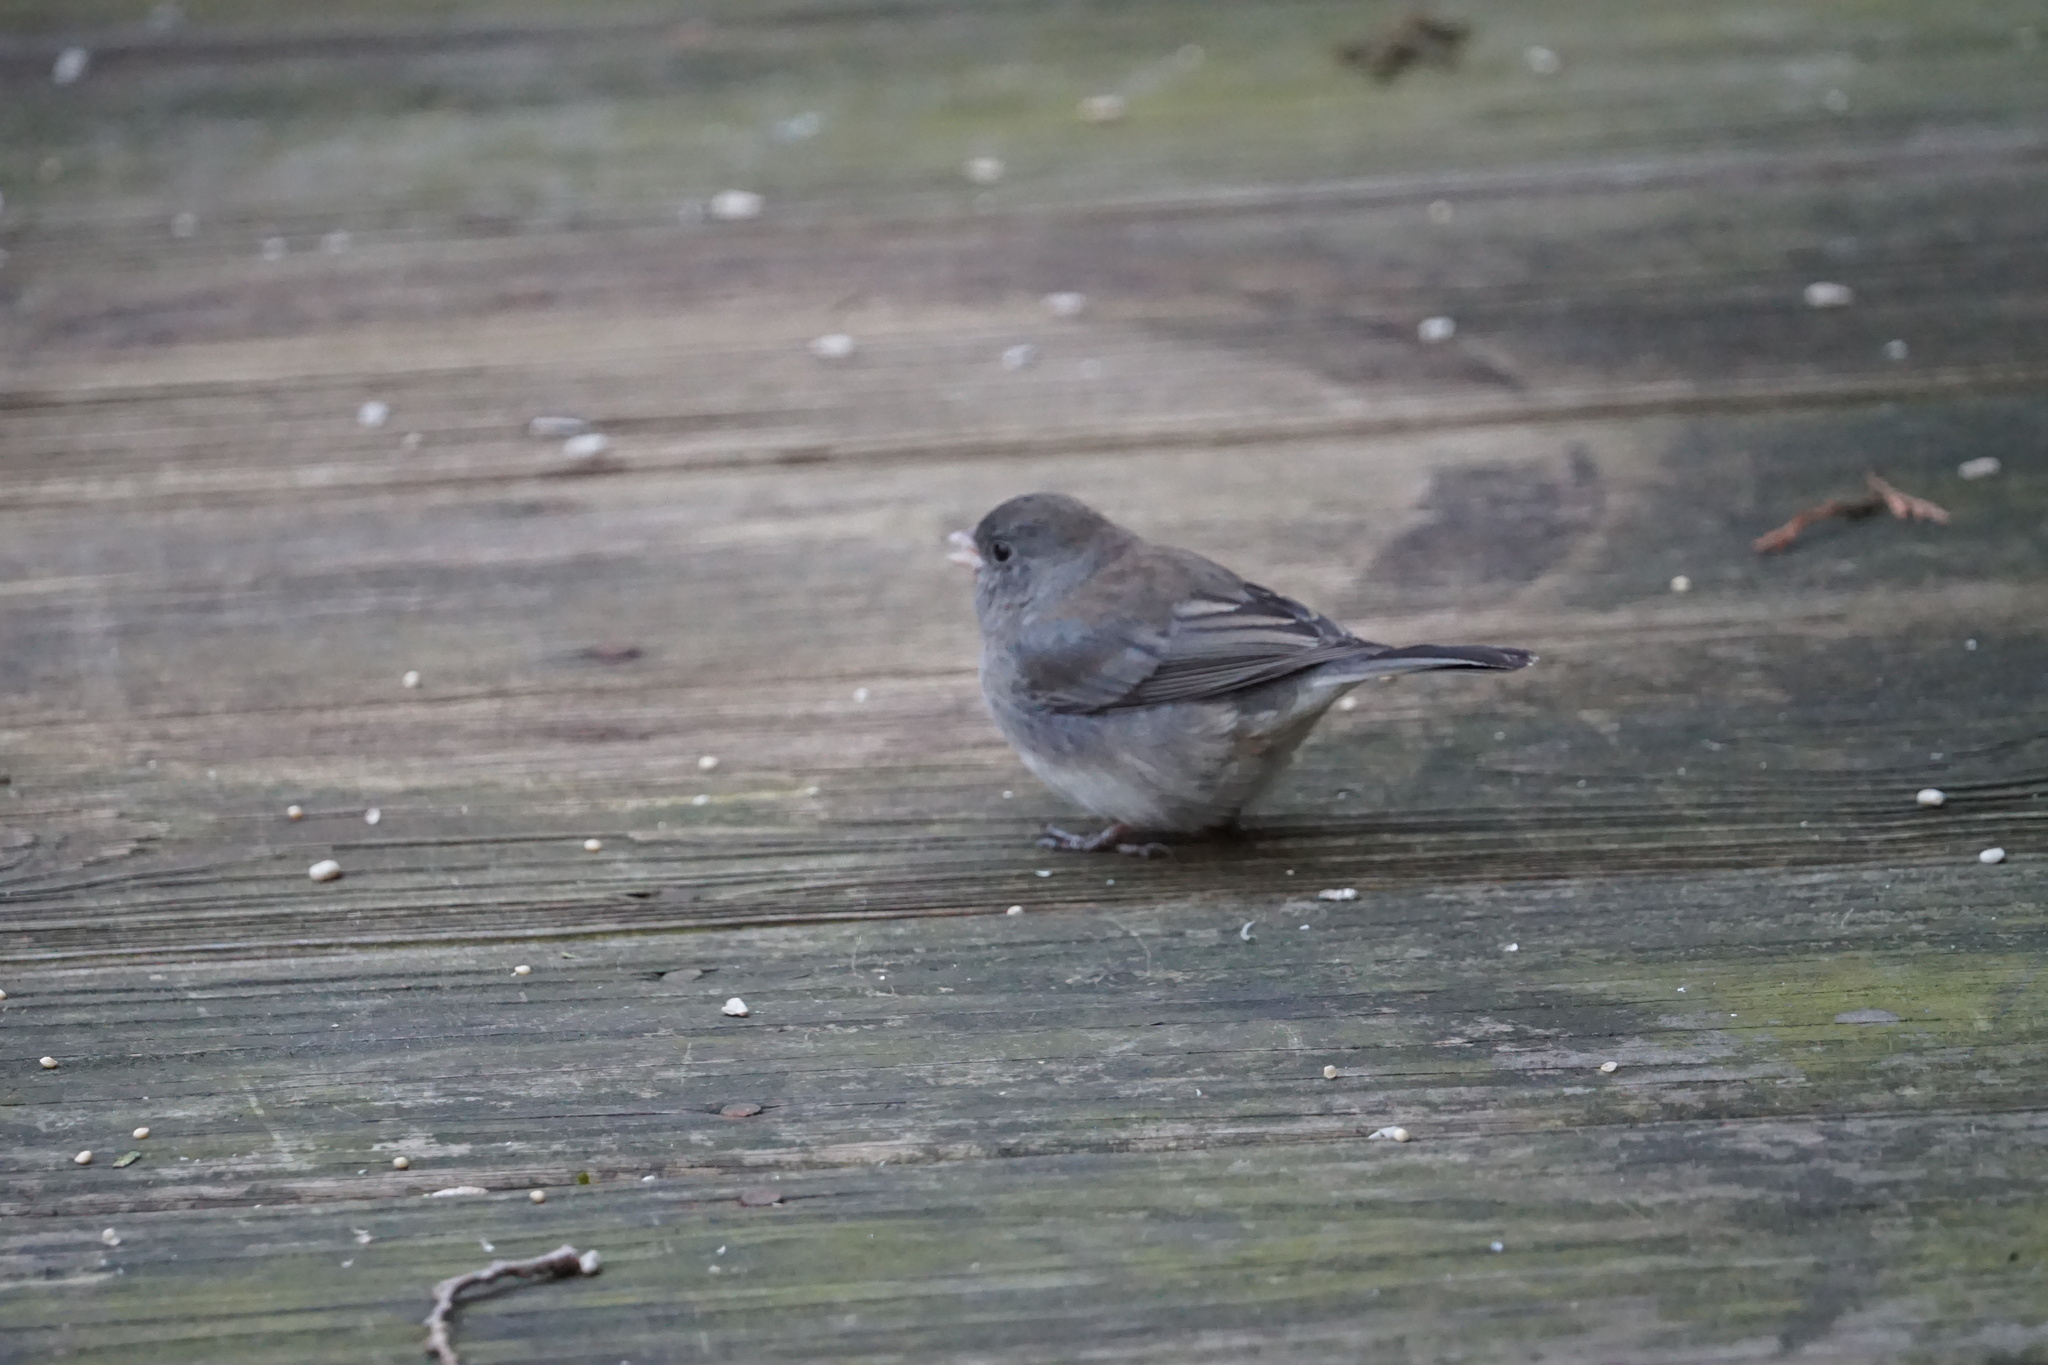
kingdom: Animalia
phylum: Chordata
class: Aves
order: Passeriformes
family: Passerellidae
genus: Junco
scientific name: Junco hyemalis
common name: Dark-eyed junco
